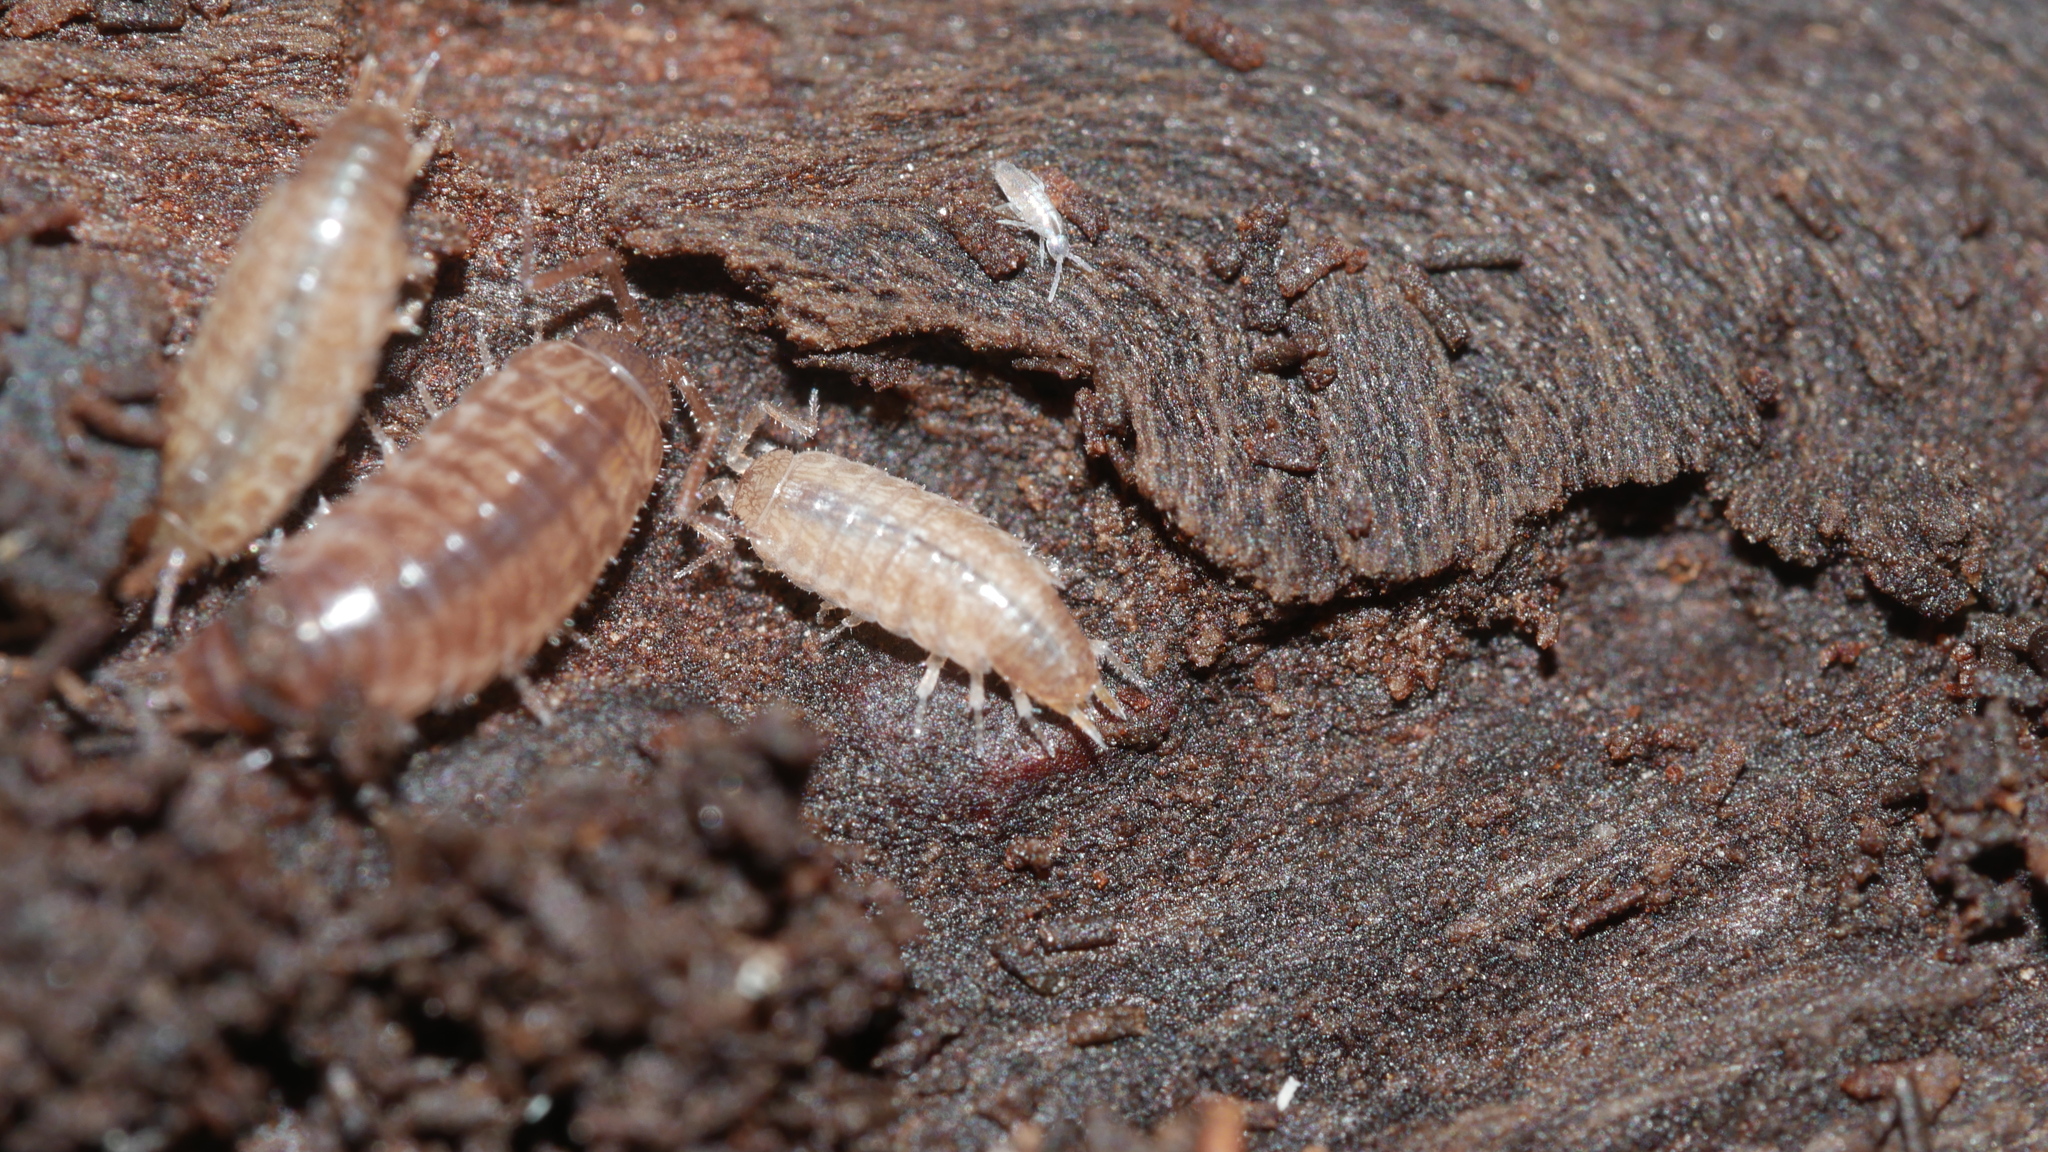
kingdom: Animalia
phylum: Arthropoda
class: Malacostraca
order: Isopoda
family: Philosciidae
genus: Chaetophiloscia
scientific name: Chaetophiloscia sicula
